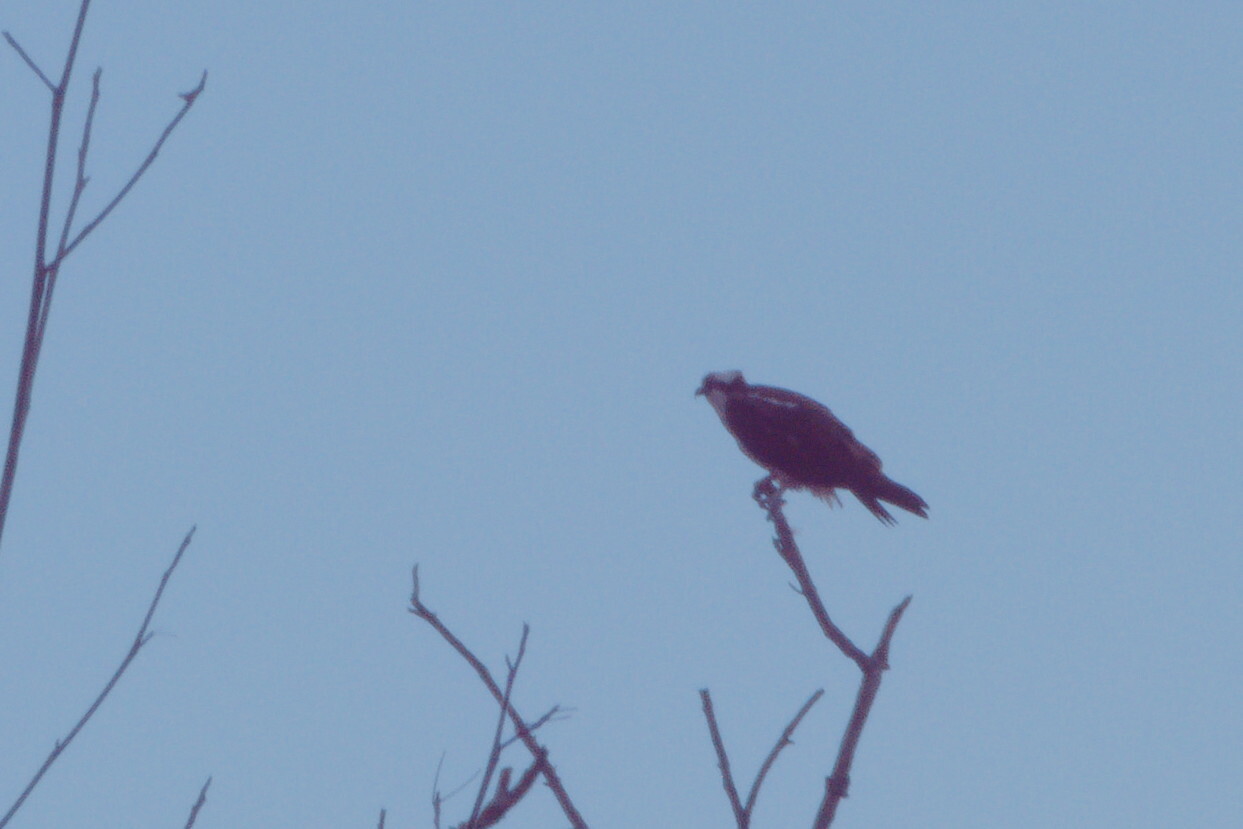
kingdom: Animalia
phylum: Chordata
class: Aves
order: Accipitriformes
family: Pandionidae
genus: Pandion
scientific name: Pandion haliaetus
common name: Osprey
